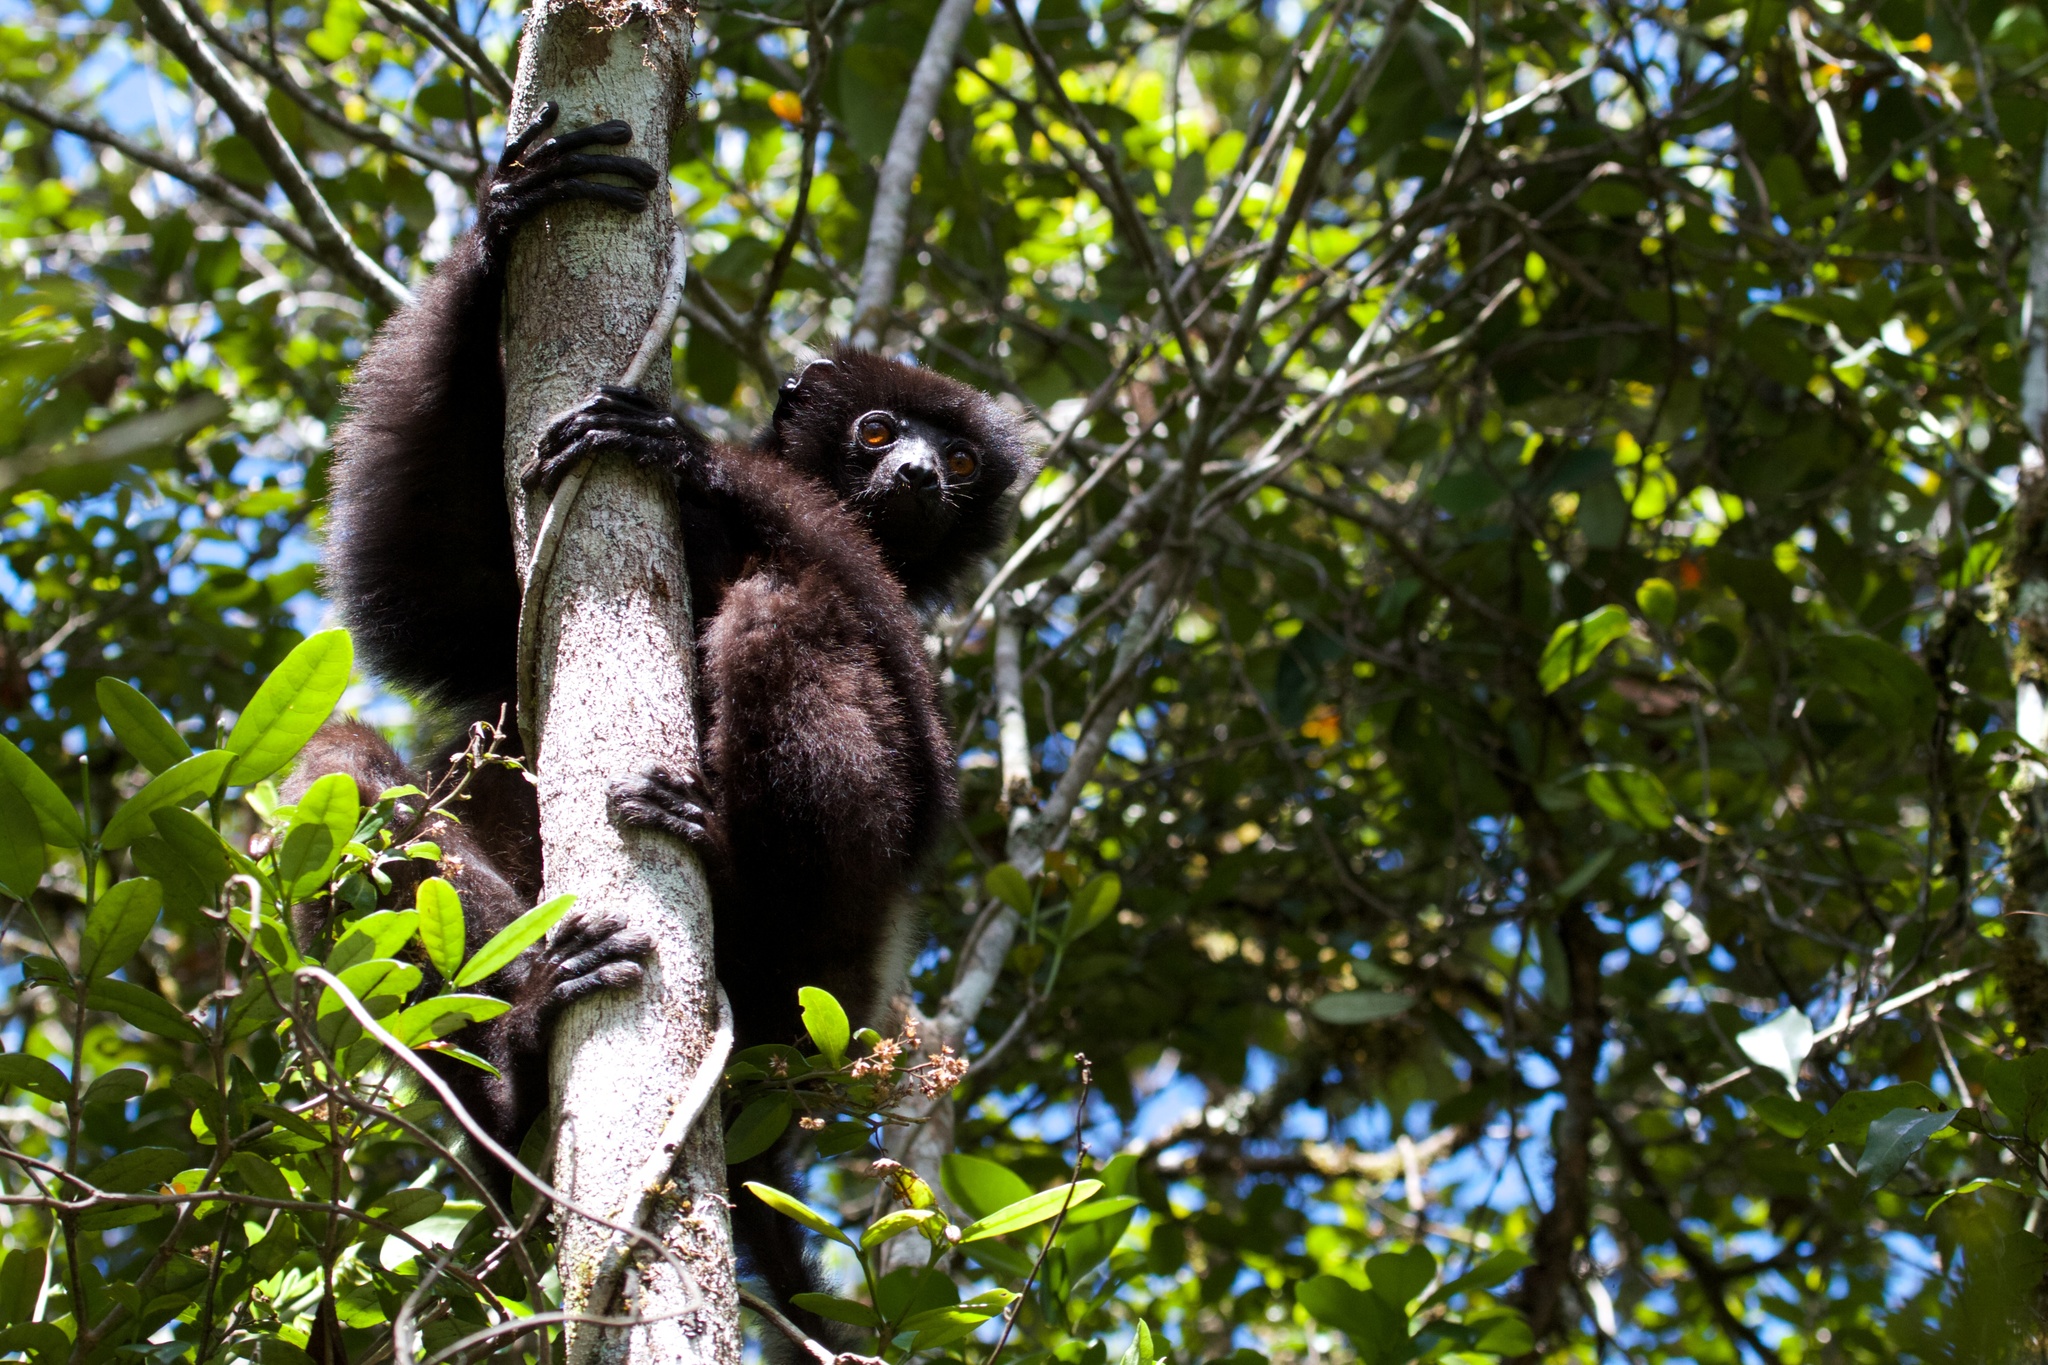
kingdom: Animalia
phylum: Chordata
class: Mammalia
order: Primates
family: Indriidae
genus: Propithecus
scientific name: Propithecus edwardsi
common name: Milne-edwards’s simpona
